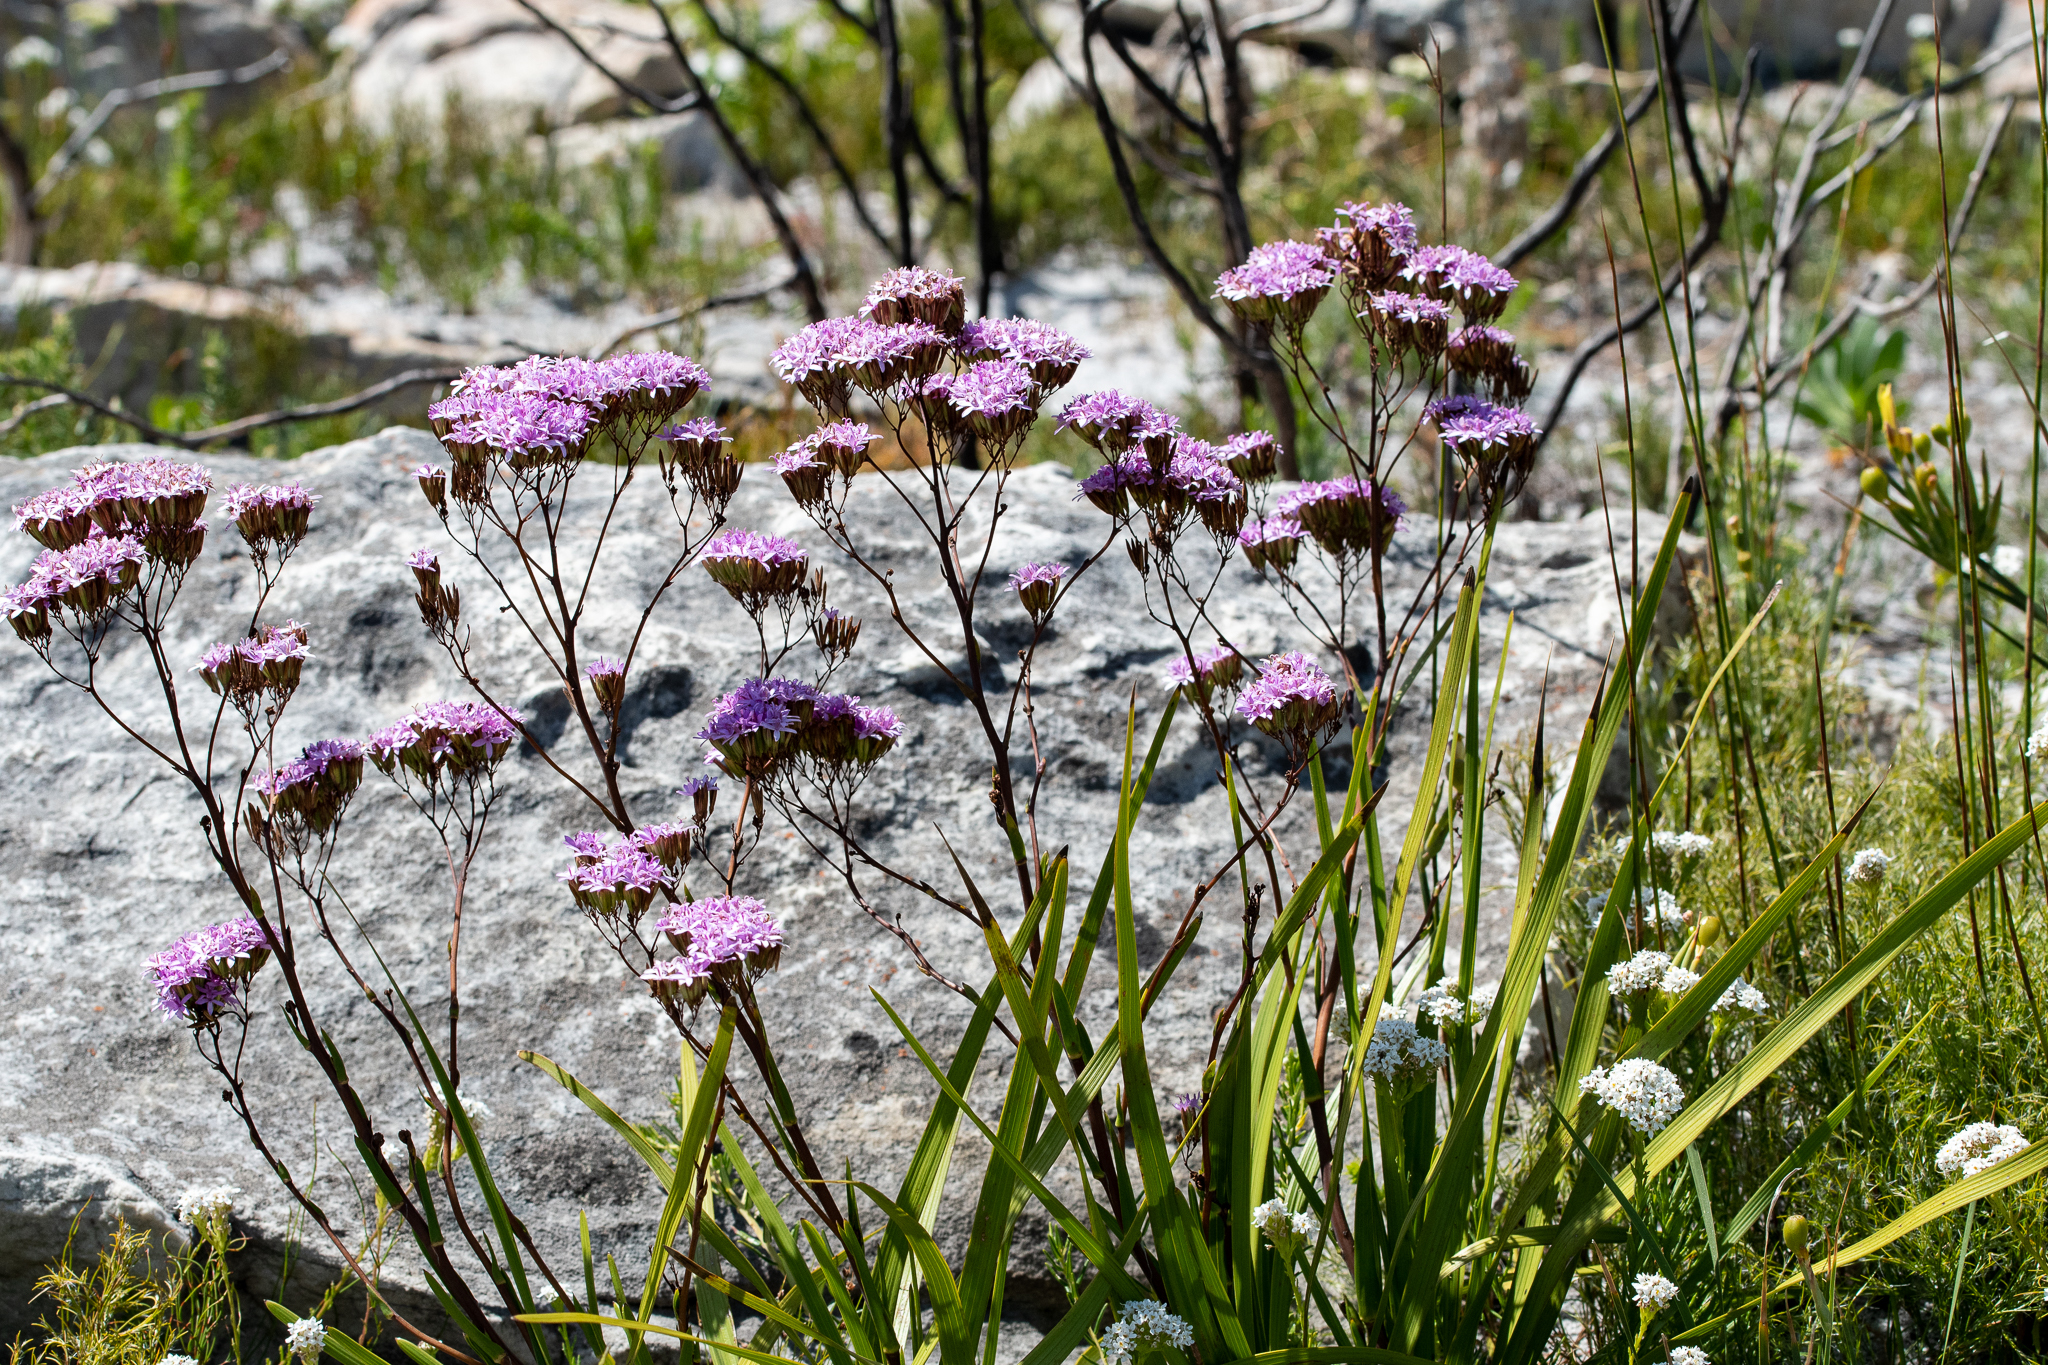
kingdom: Plantae
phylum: Tracheophyta
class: Magnoliopsida
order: Asterales
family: Asteraceae
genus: Corymbium
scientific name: Corymbium glabrum
